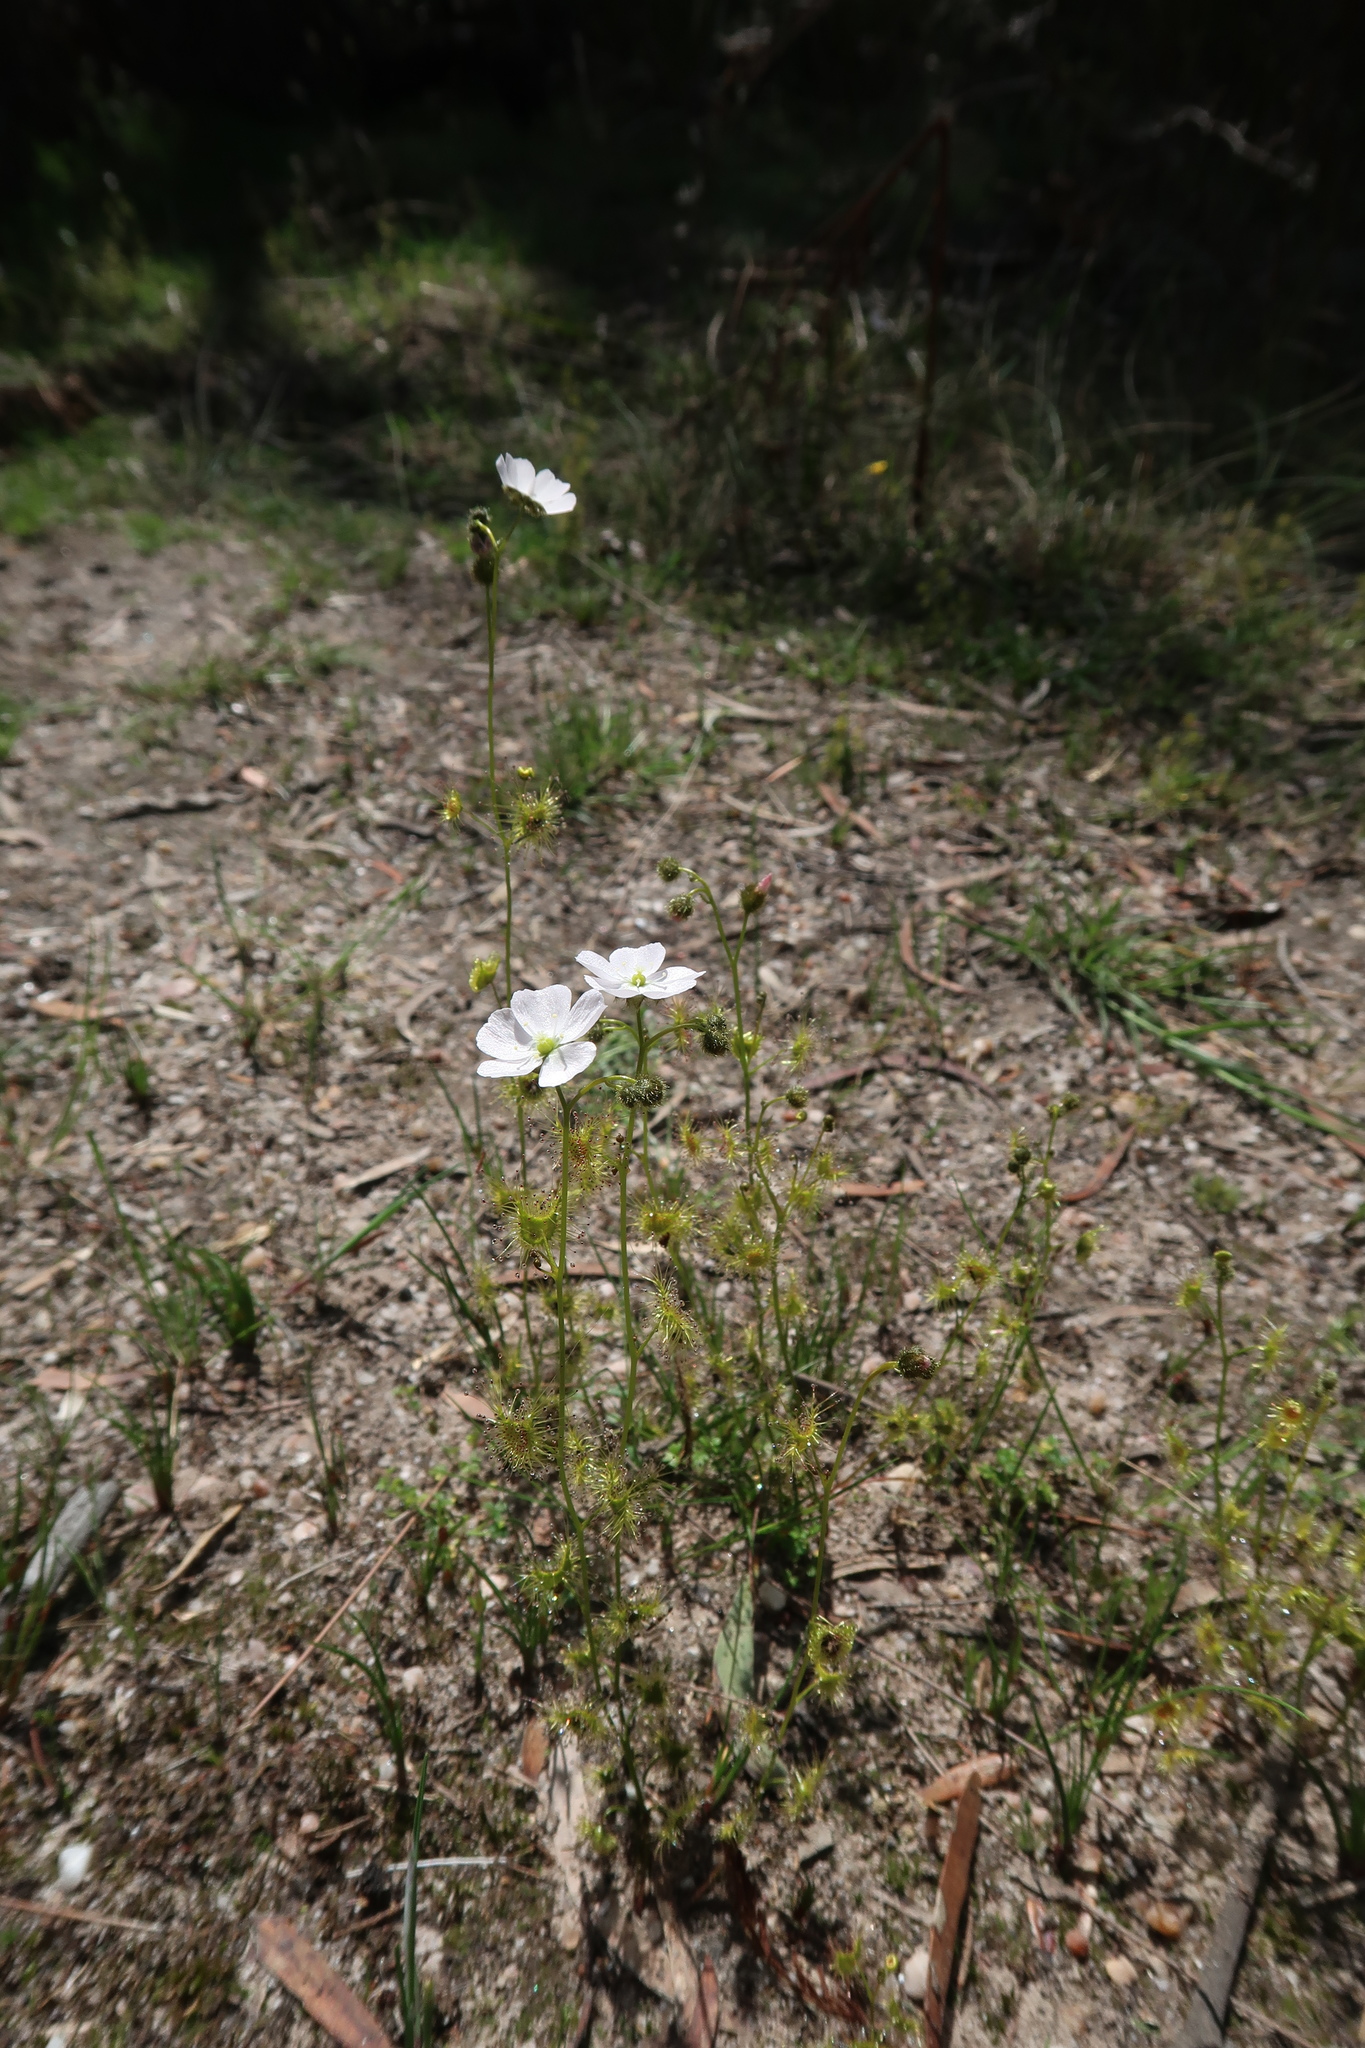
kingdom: Plantae
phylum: Tracheophyta
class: Magnoliopsida
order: Caryophyllales
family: Droseraceae
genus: Drosera
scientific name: Drosera gunniana
